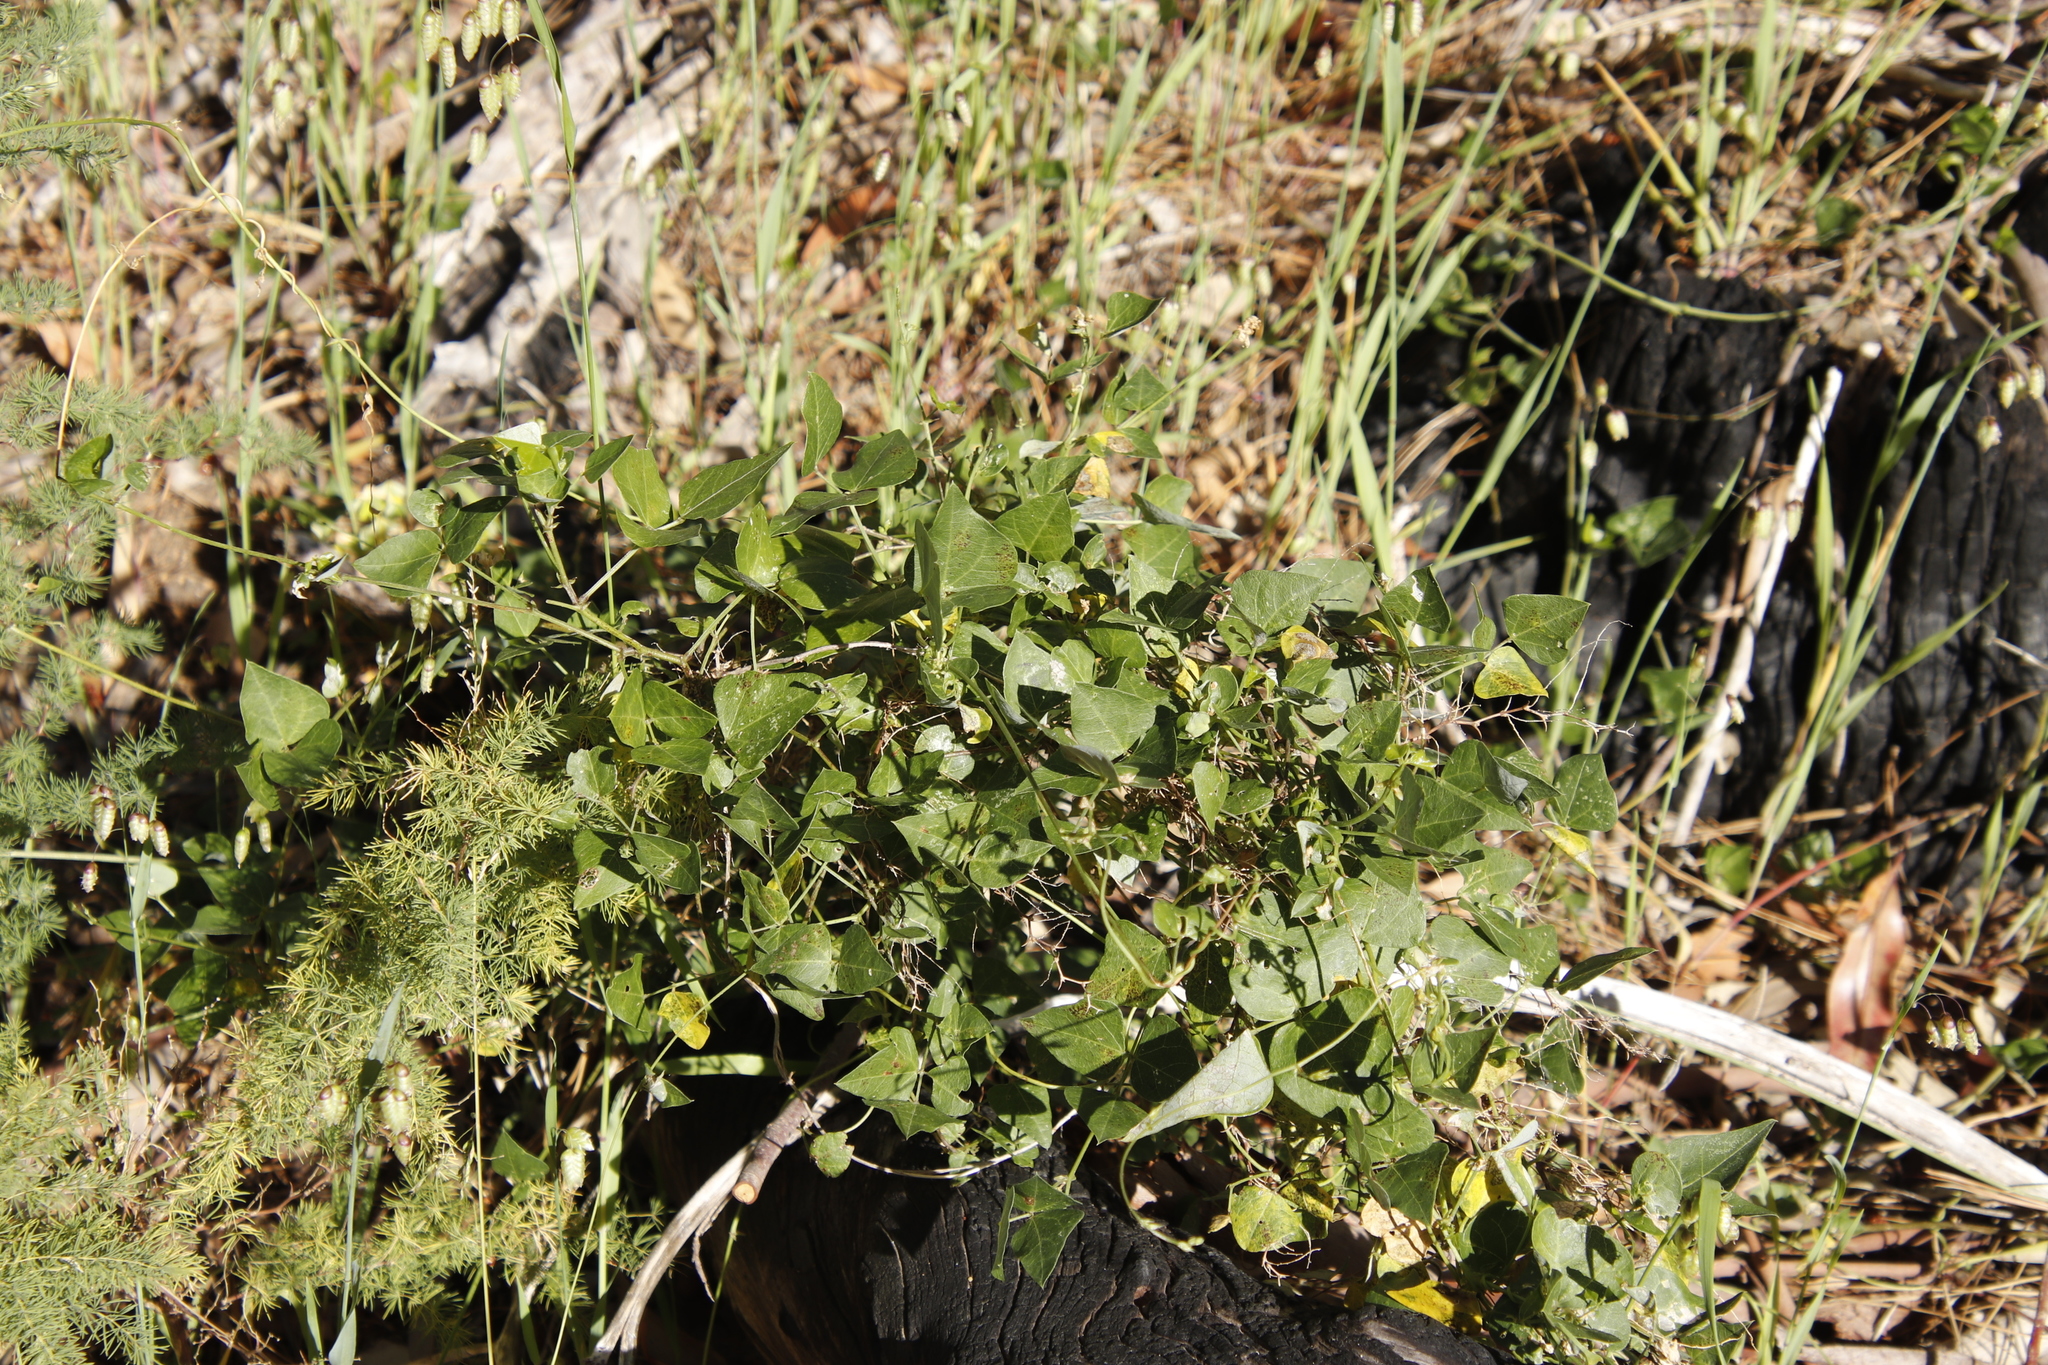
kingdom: Plantae
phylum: Tracheophyta
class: Magnoliopsida
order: Fabales
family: Fabaceae
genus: Dipogon
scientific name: Dipogon lignosus
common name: Okie bean
